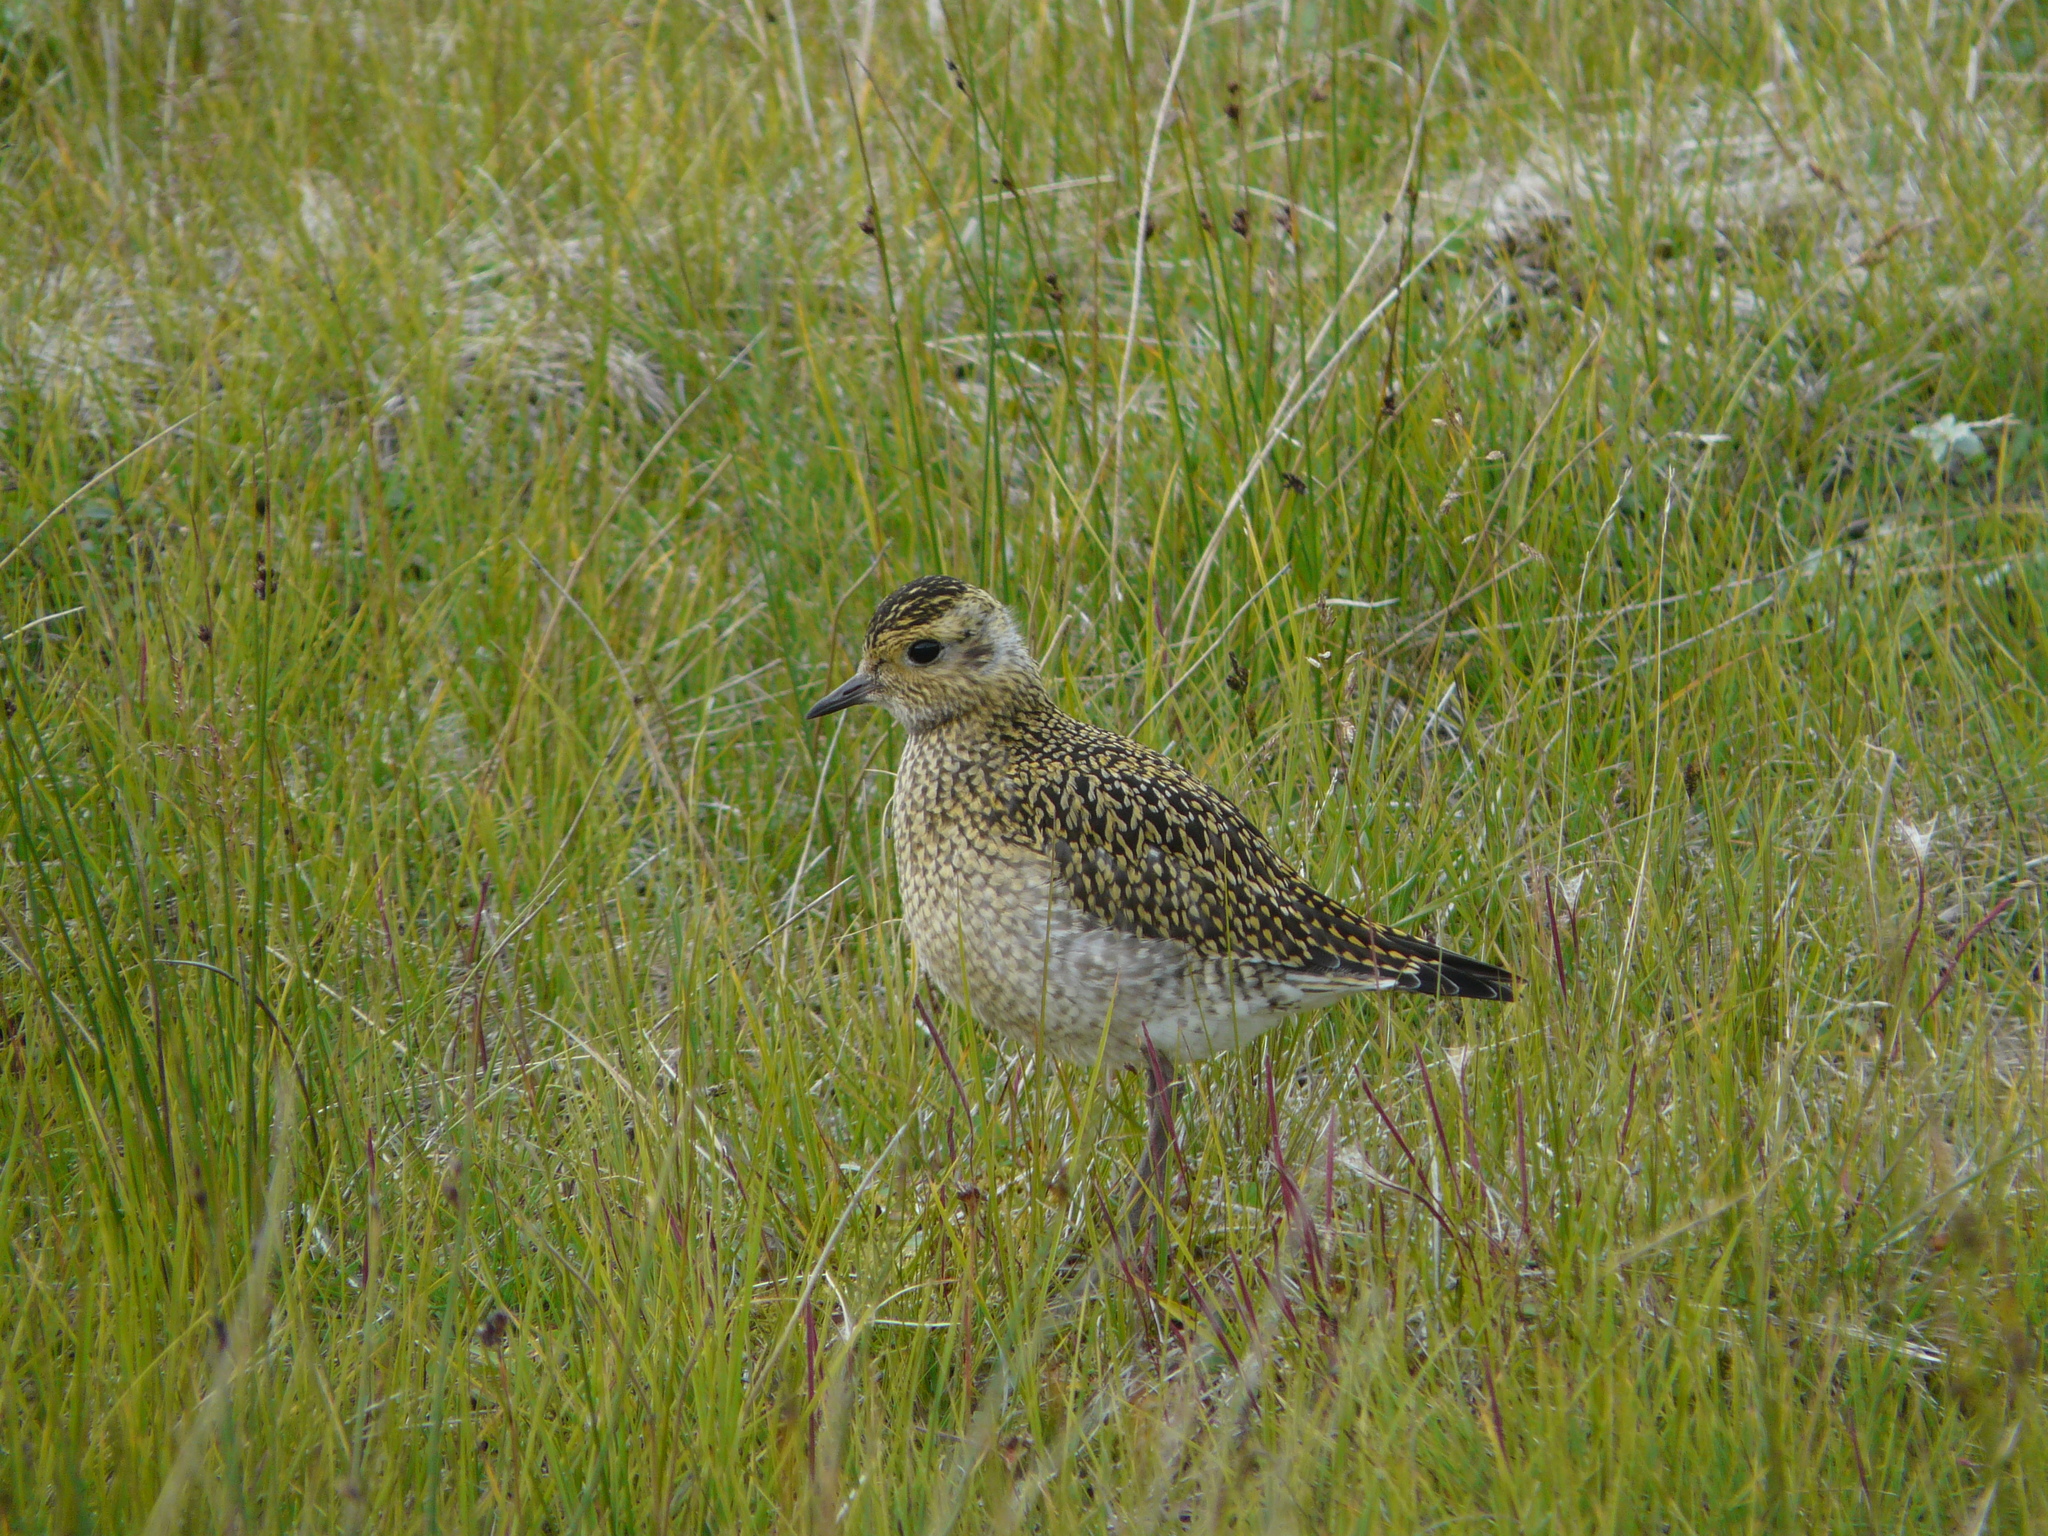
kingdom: Animalia
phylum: Chordata
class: Aves
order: Charadriiformes
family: Charadriidae
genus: Pluvialis
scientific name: Pluvialis apricaria
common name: European golden plover
